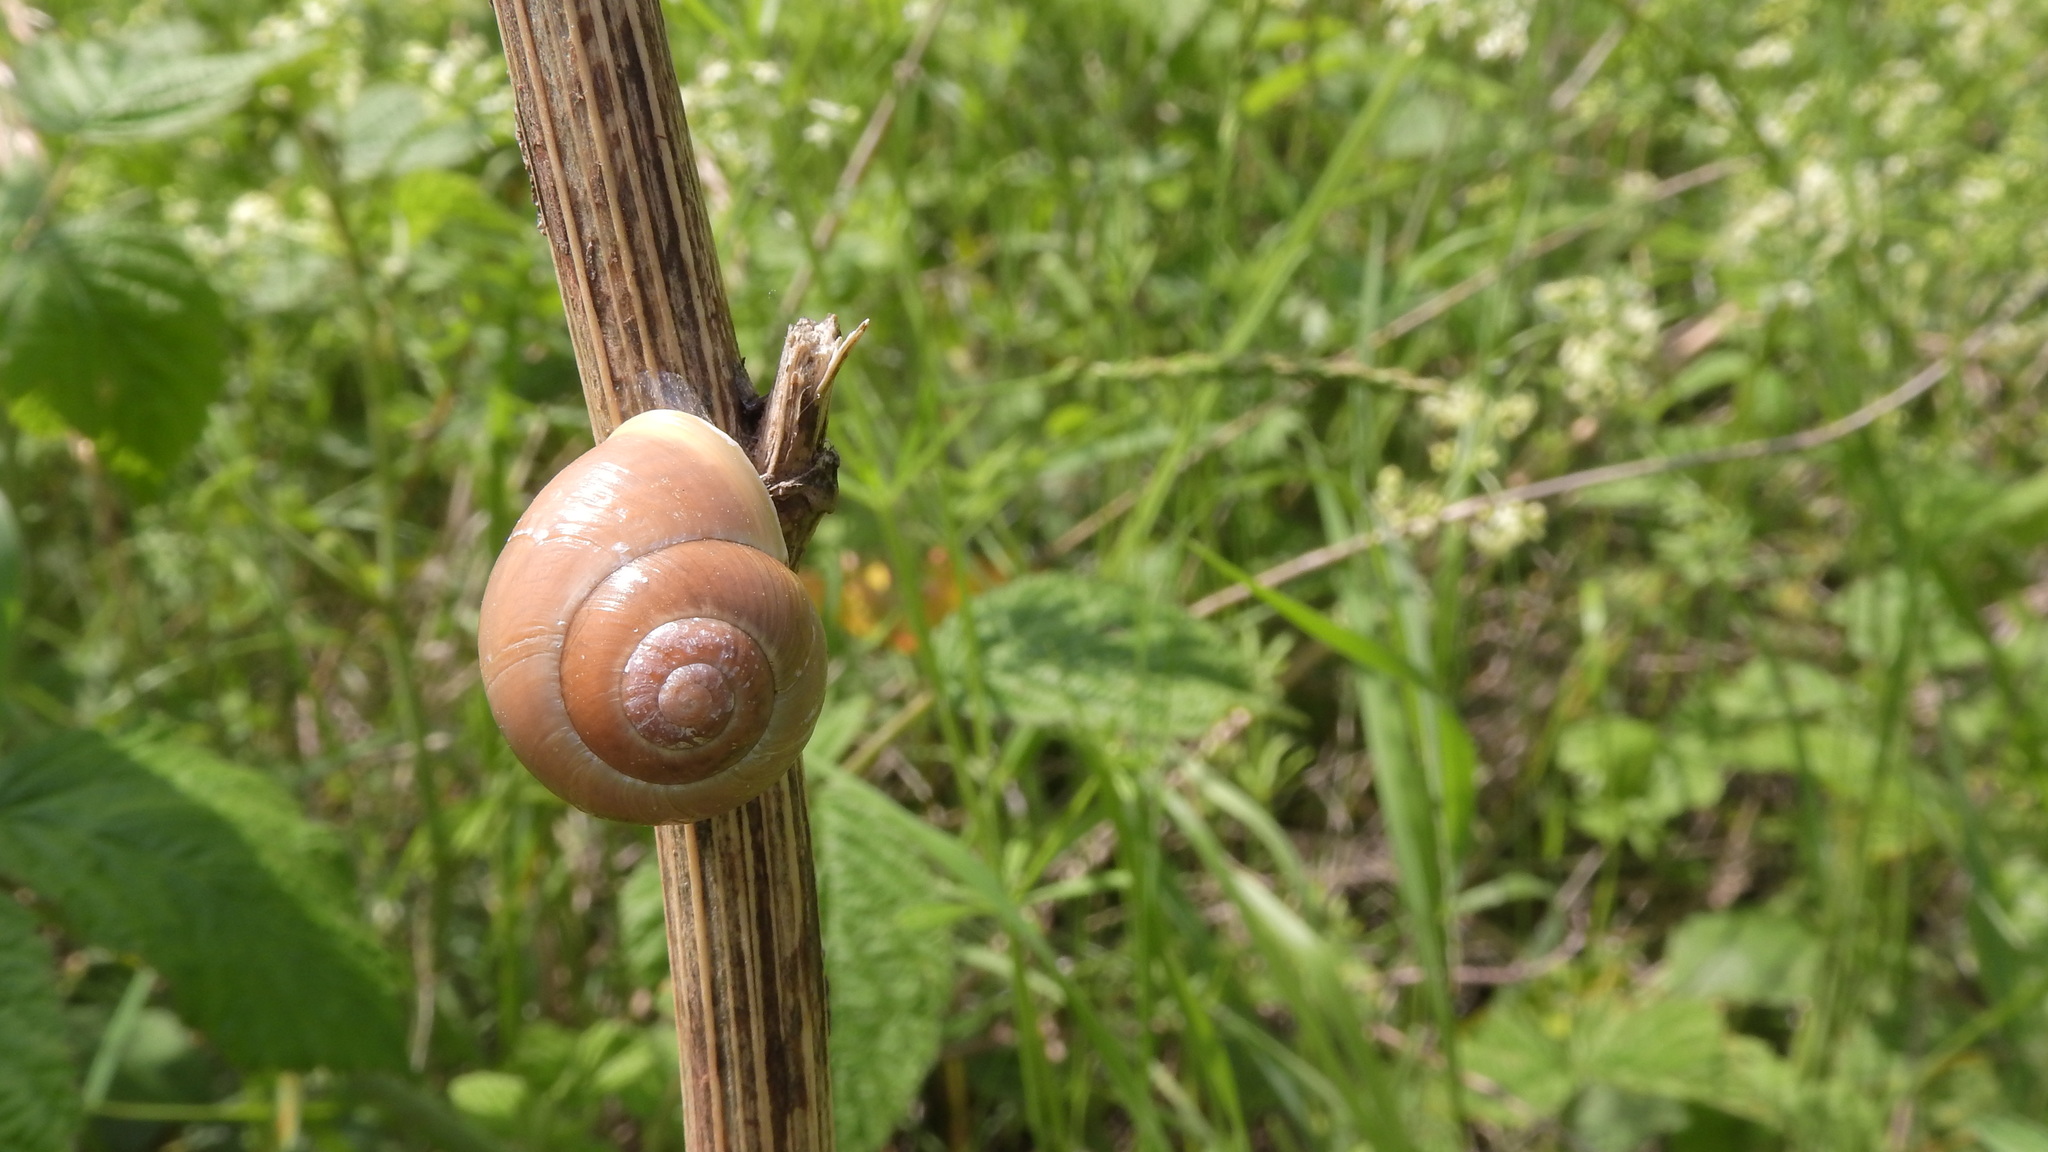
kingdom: Animalia
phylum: Mollusca
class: Gastropoda
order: Stylommatophora
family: Helicidae
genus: Cepaea
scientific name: Cepaea hortensis
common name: White-lip gardensnail
